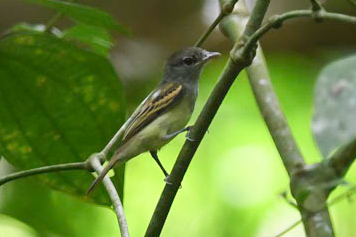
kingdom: Animalia
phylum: Chordata
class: Aves
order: Passeriformes
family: Cotingidae
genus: Pachyramphus
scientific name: Pachyramphus polychopterus
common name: White-winged becard
